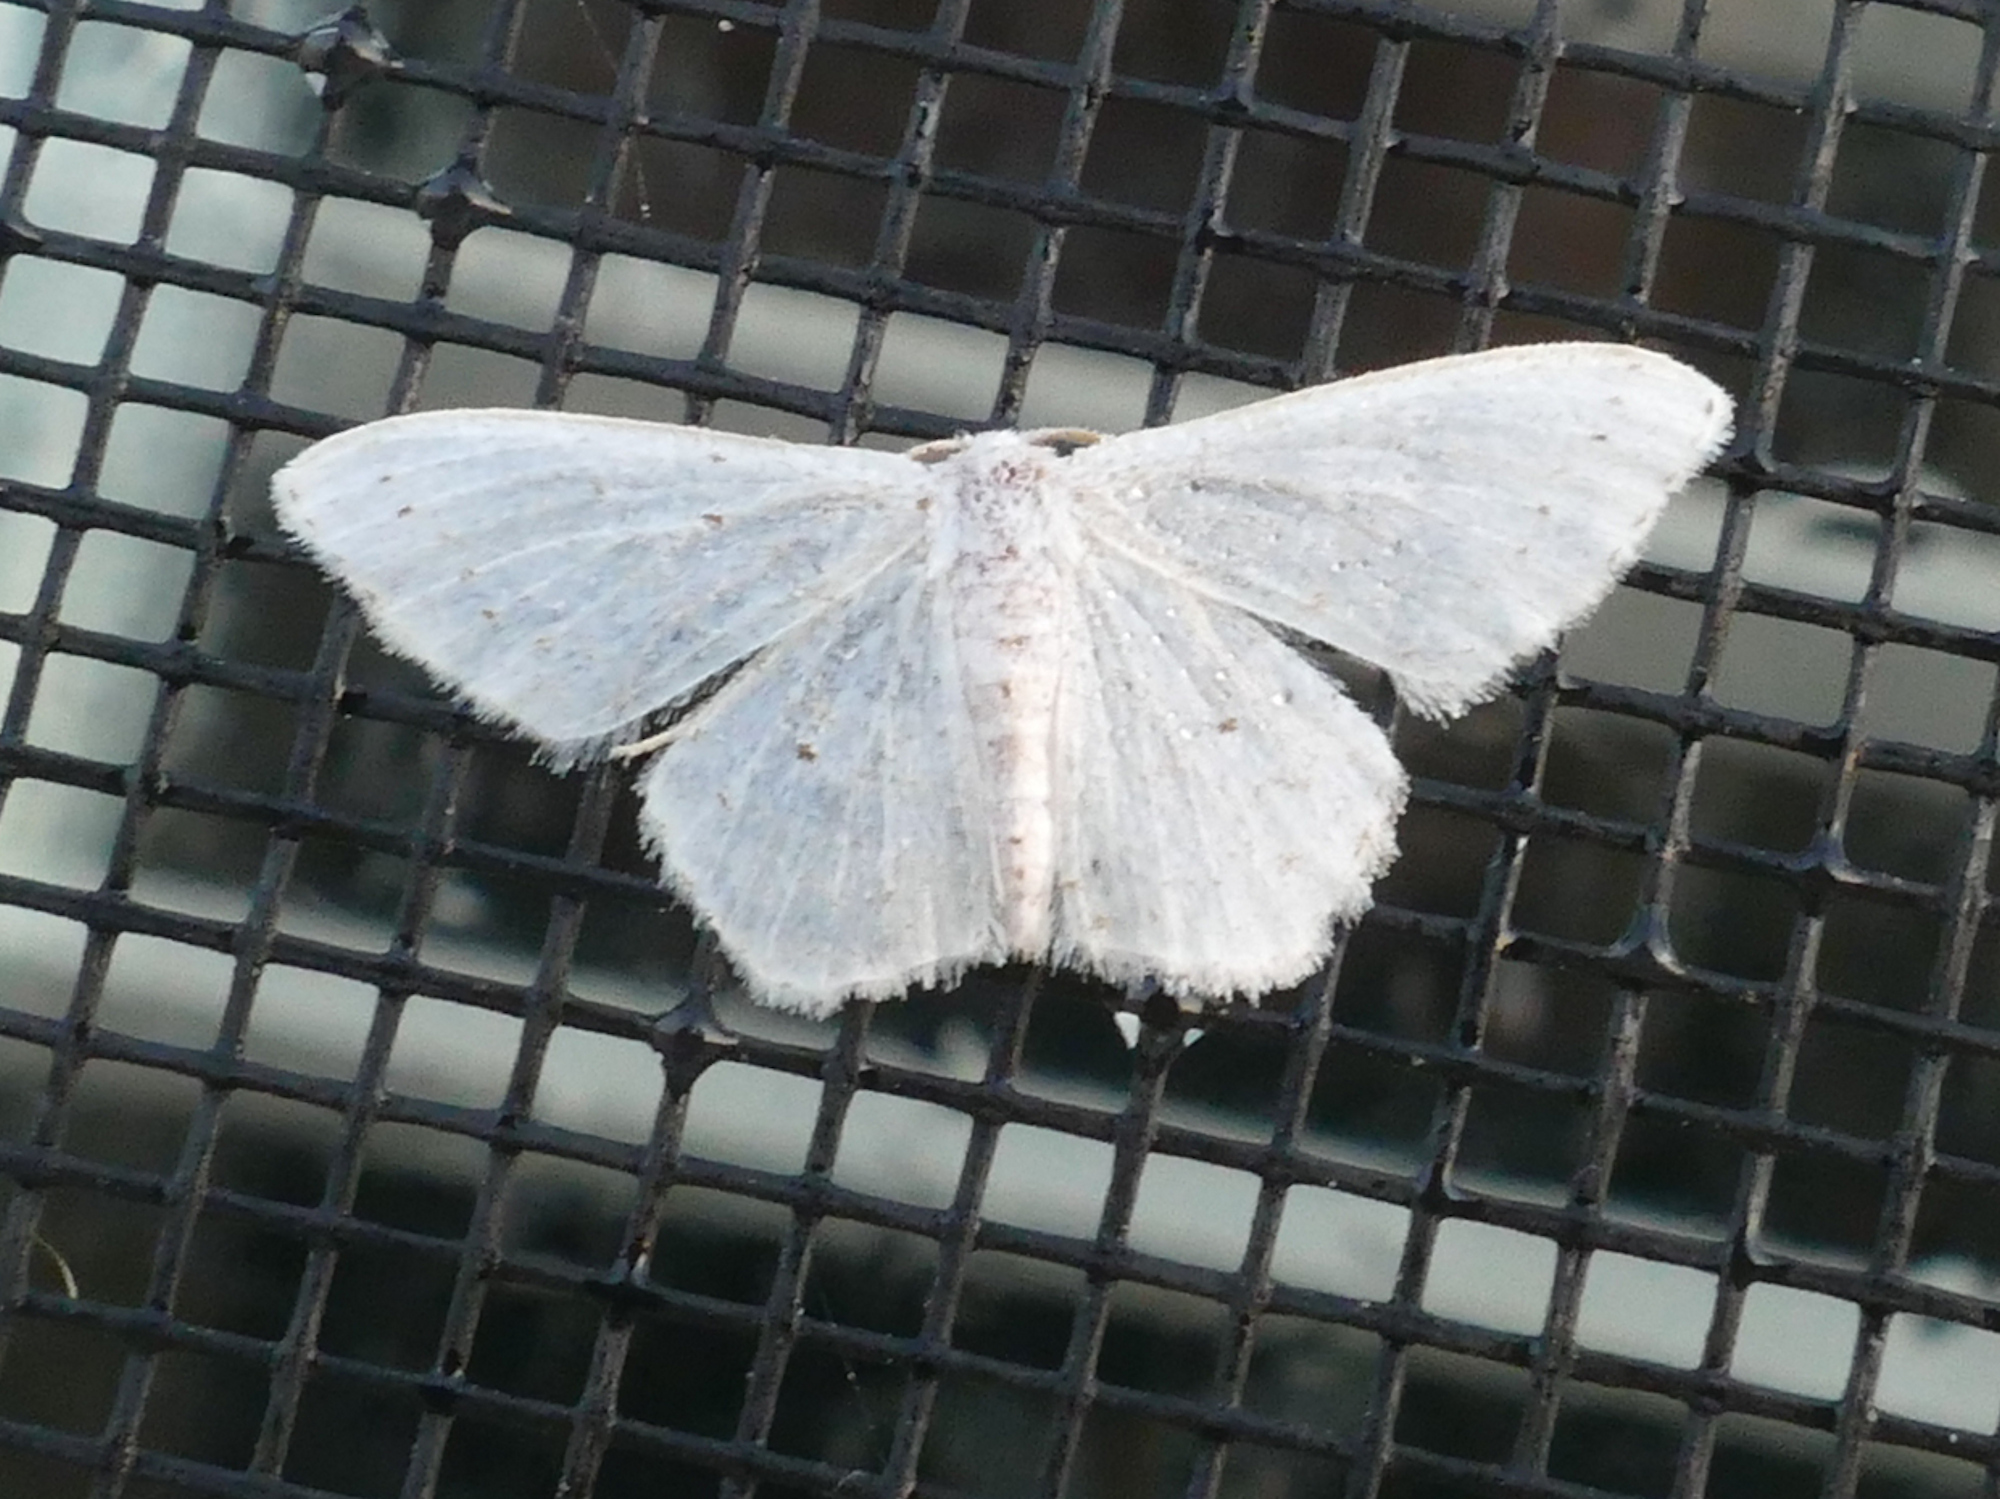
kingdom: Animalia
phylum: Arthropoda
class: Insecta
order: Lepidoptera
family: Geometridae
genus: Idaea
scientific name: Idaea tacturata
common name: Dot-lined wave
